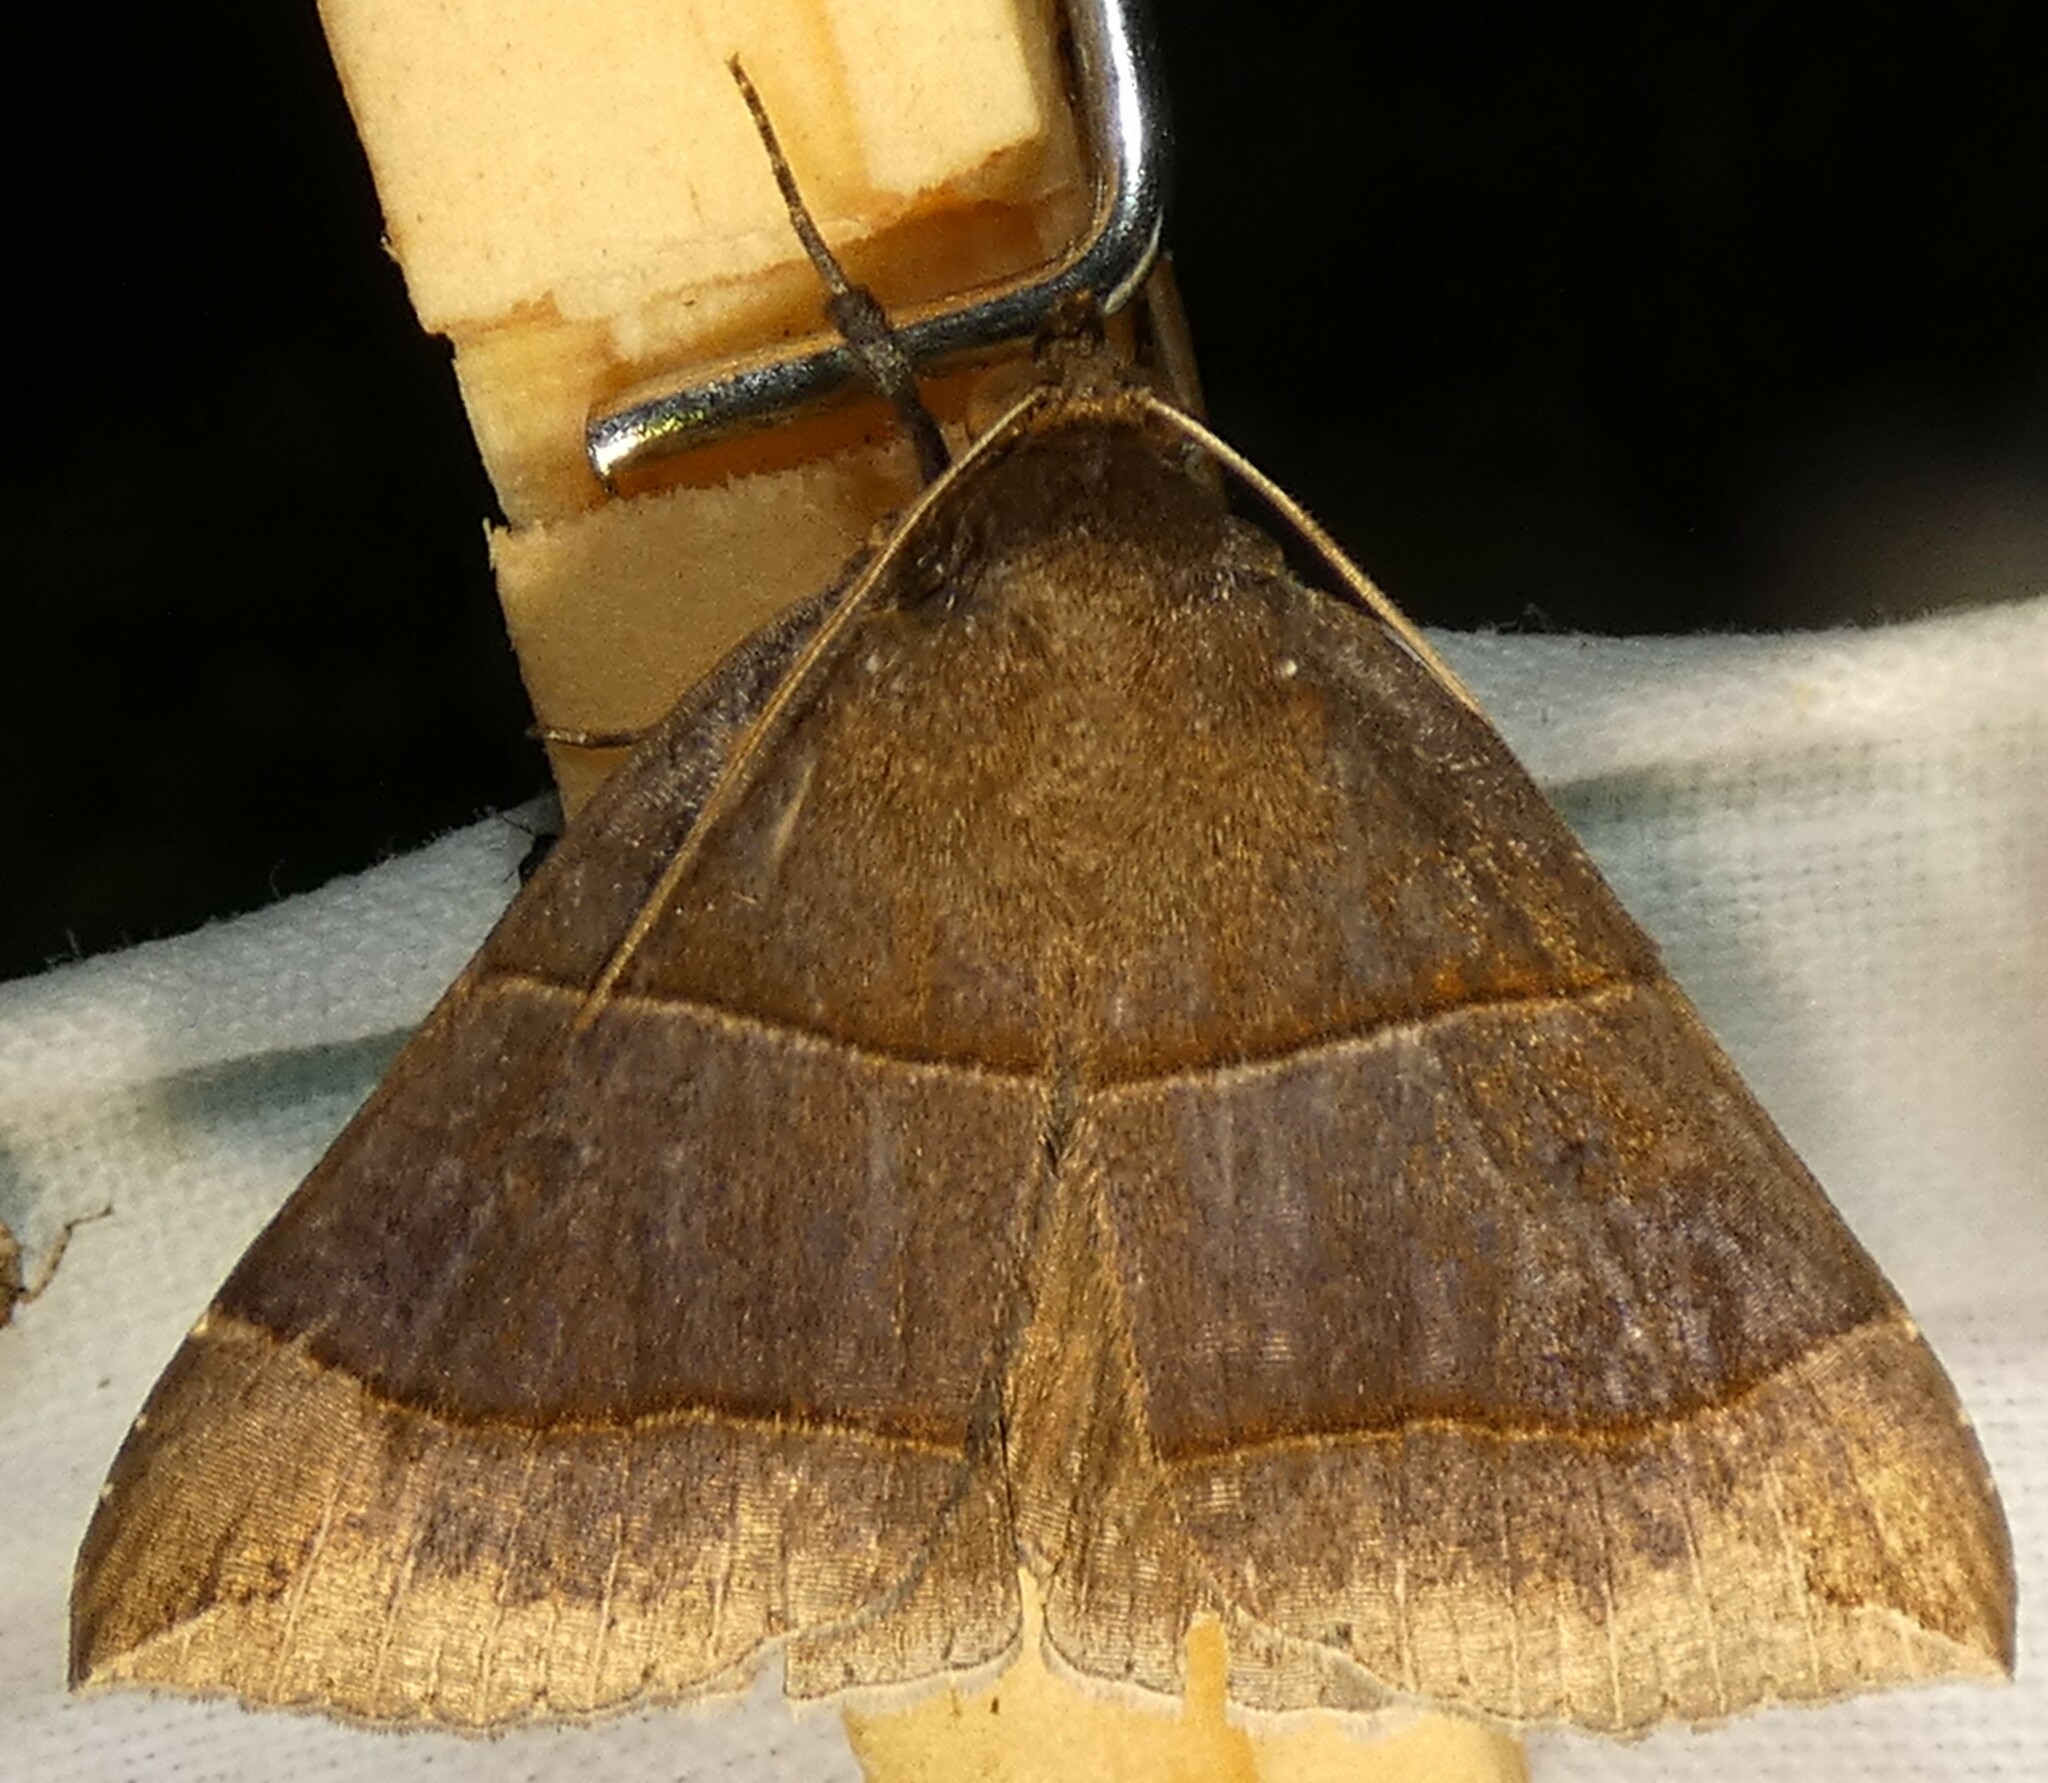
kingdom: Animalia
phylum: Arthropoda
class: Insecta
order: Lepidoptera
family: Erebidae
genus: Parallelia
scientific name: Parallelia bistriaris
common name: Maple looper moth
